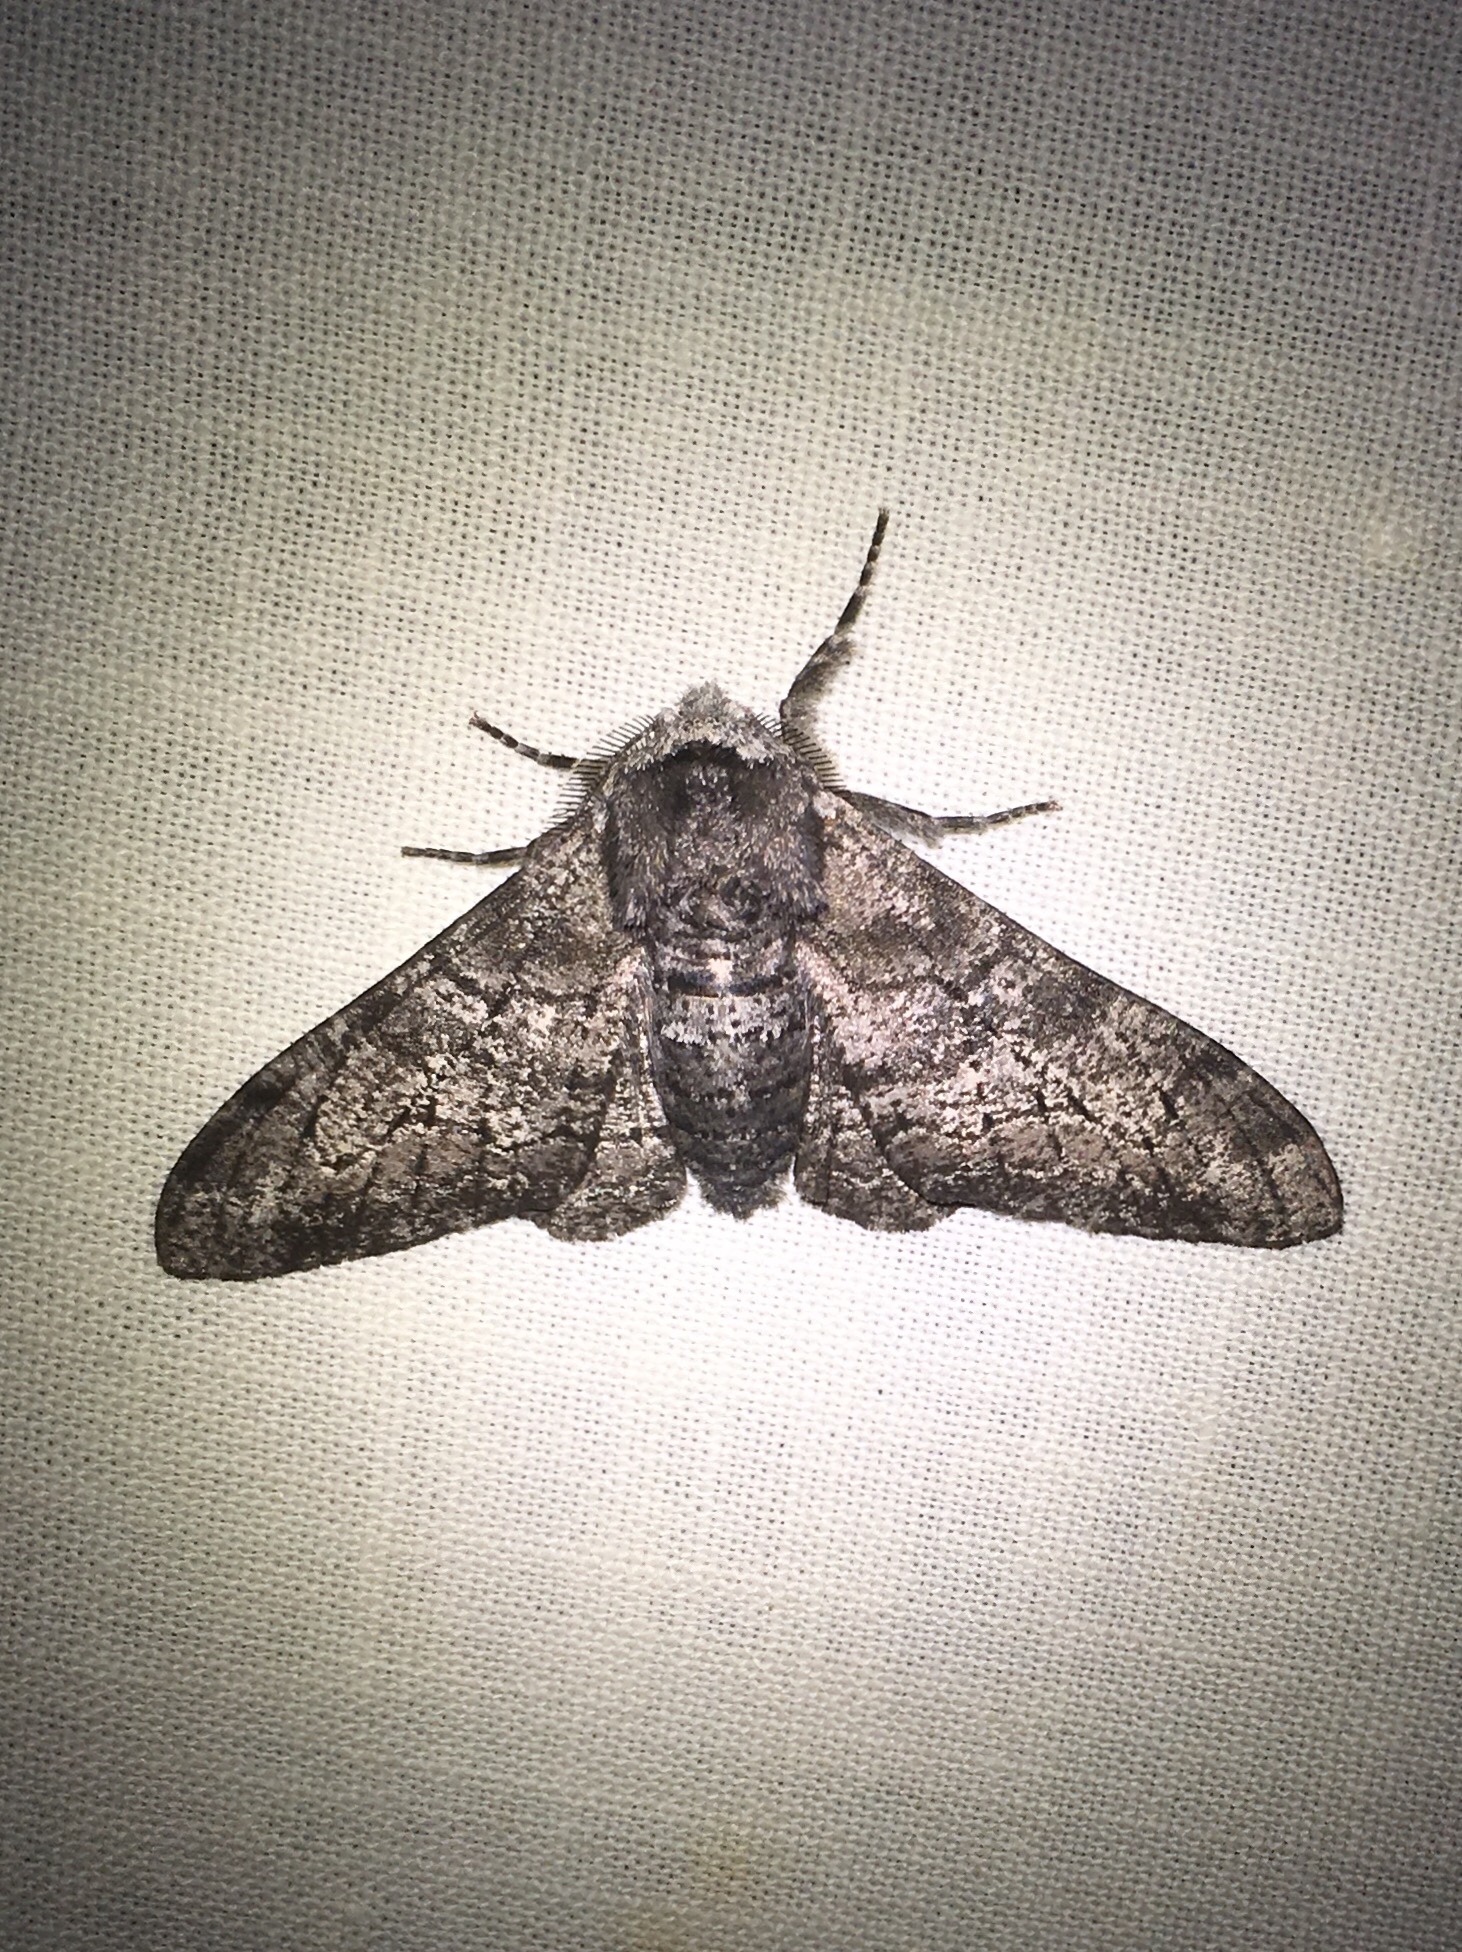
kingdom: Animalia
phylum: Arthropoda
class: Insecta
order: Lepidoptera
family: Geometridae
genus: Biston
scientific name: Biston betularia
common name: Peppered moth
